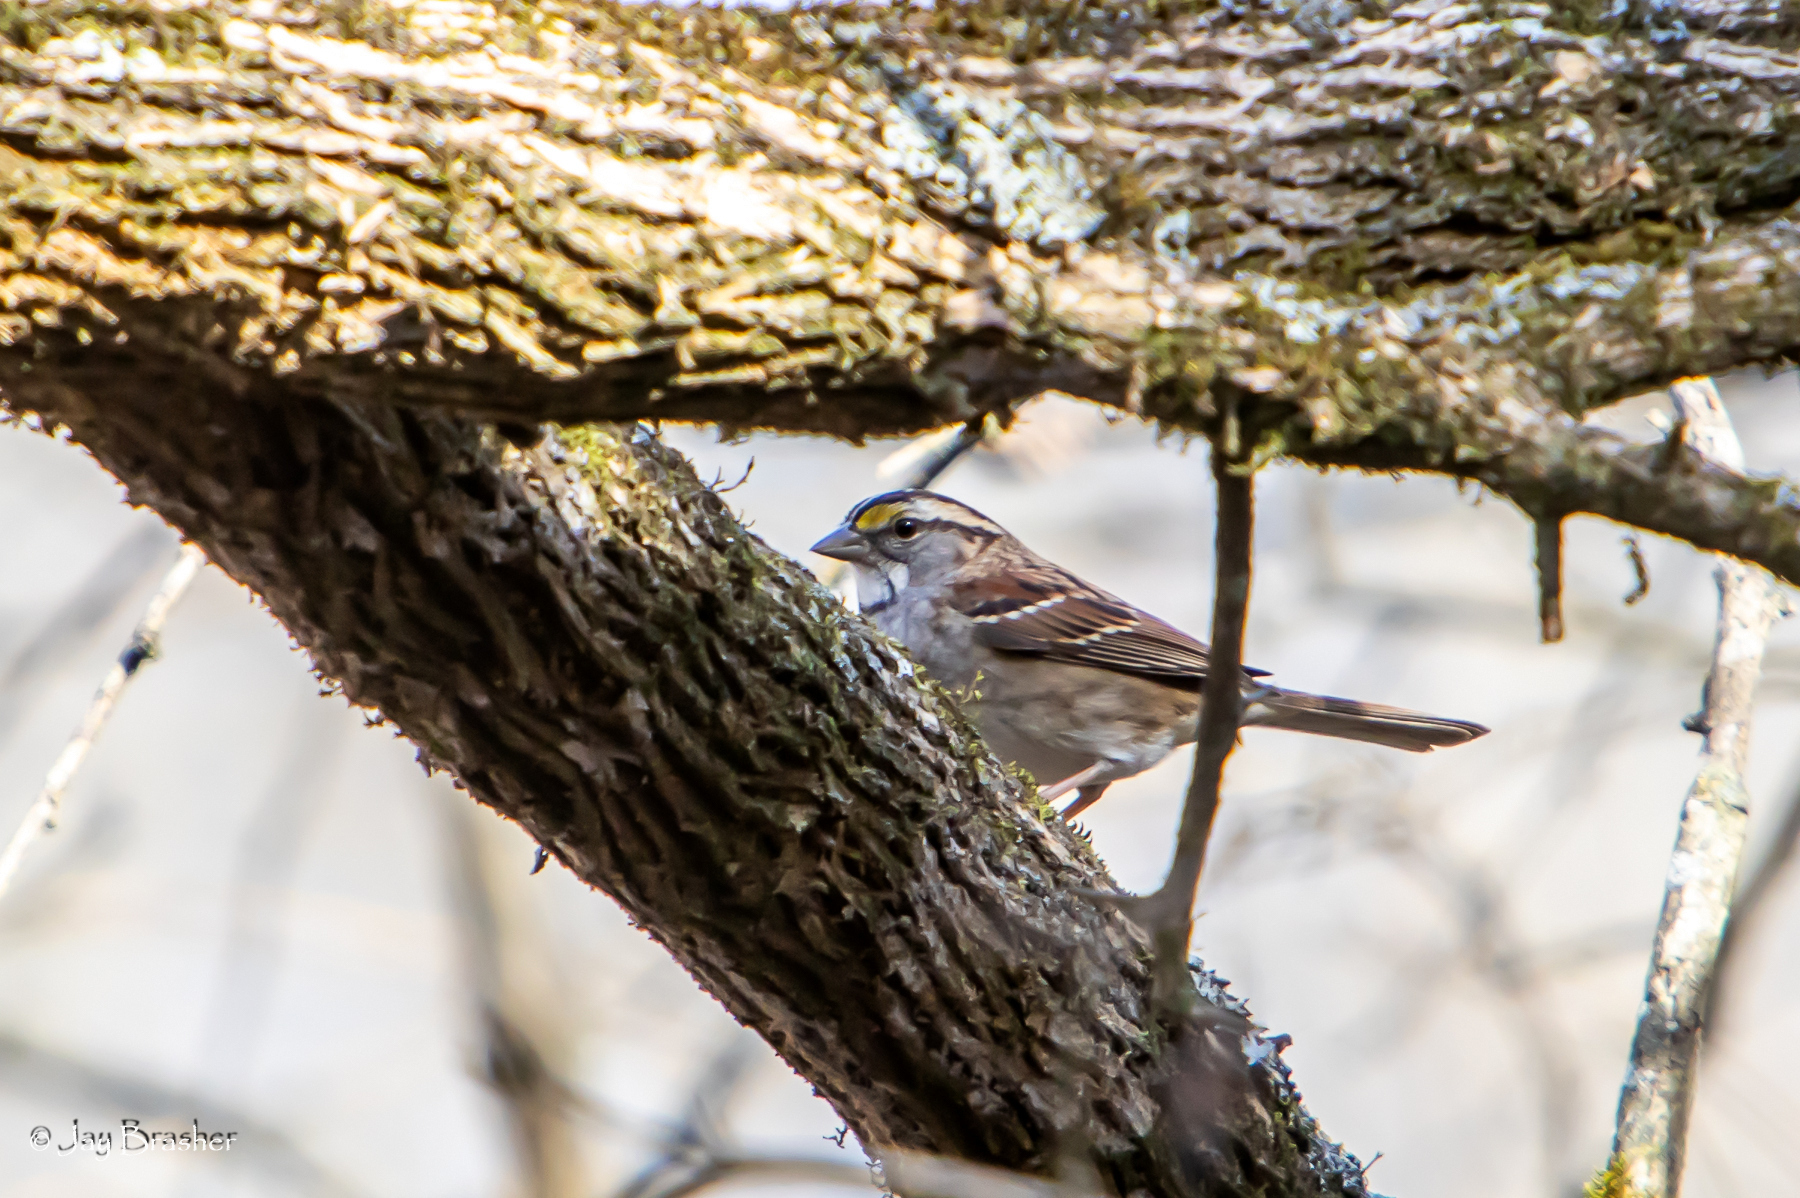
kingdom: Animalia
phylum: Chordata
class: Aves
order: Passeriformes
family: Passerellidae
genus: Zonotrichia
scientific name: Zonotrichia albicollis
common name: White-throated sparrow
